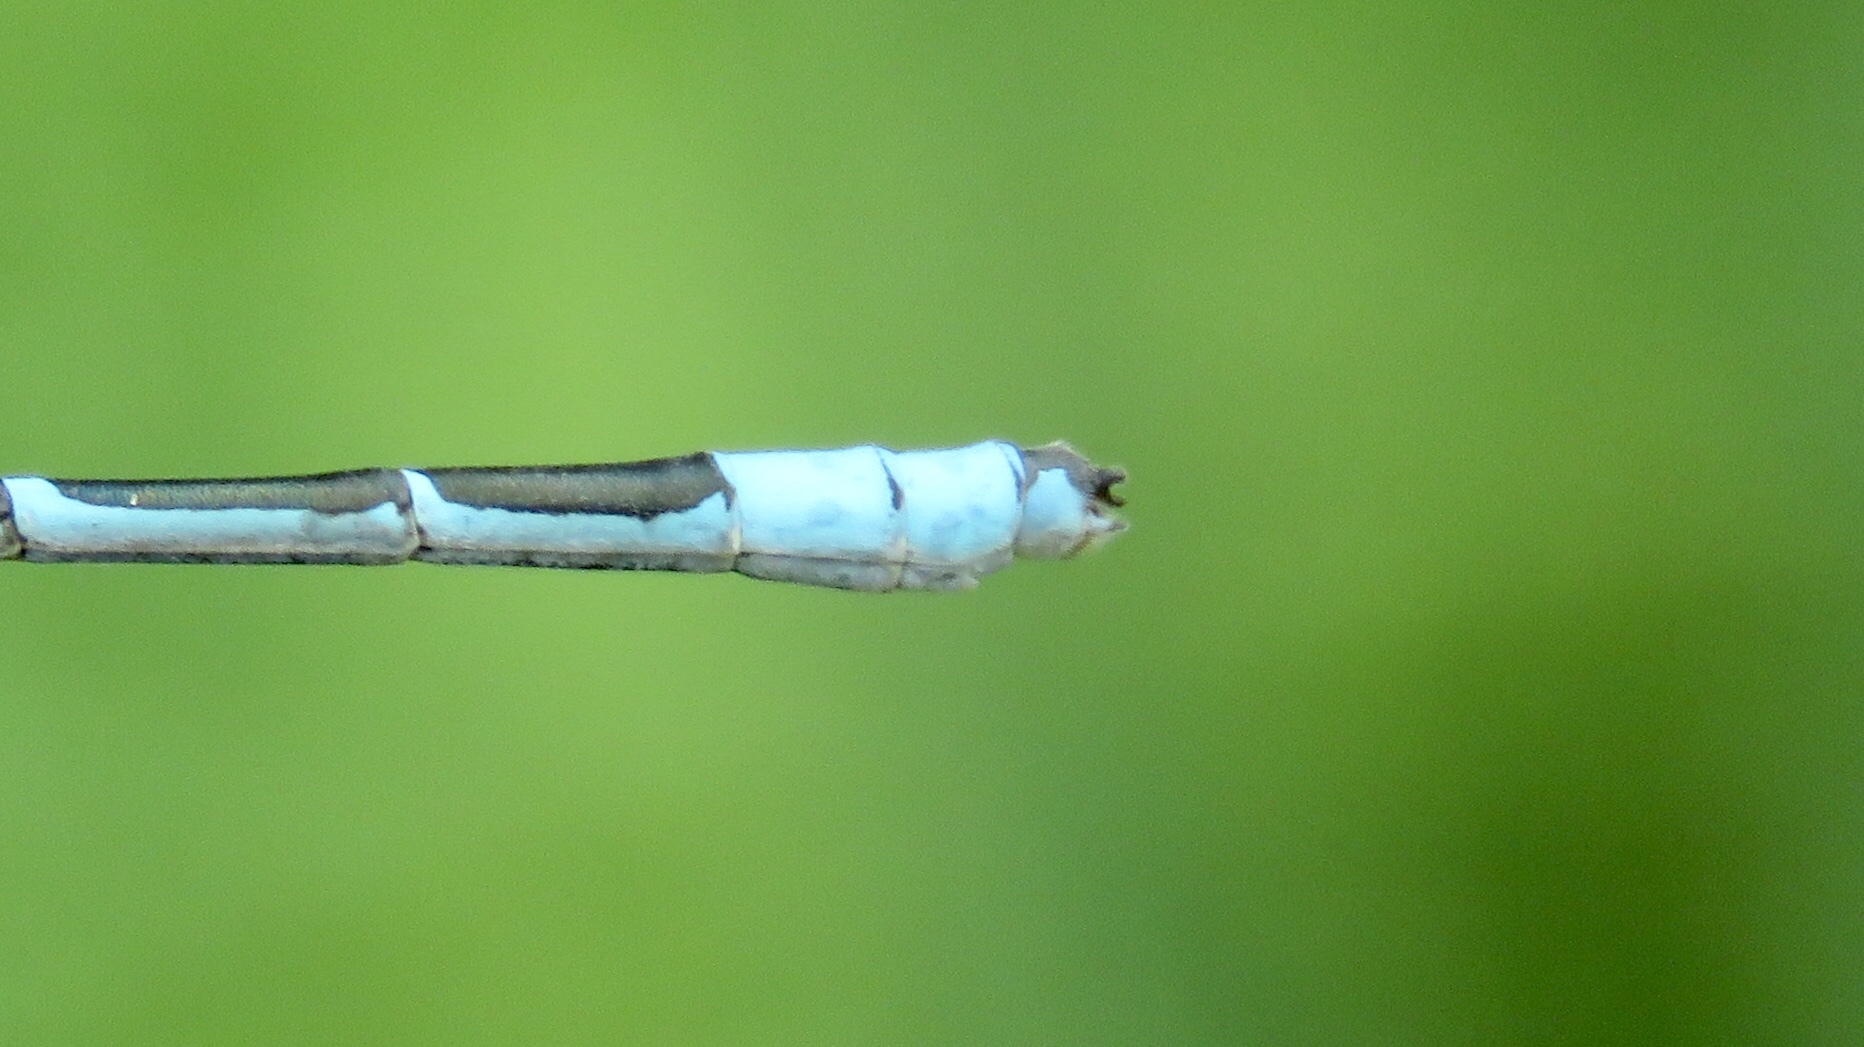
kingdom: Animalia
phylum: Arthropoda
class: Insecta
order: Odonata
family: Coenagrionidae
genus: Enallagma
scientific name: Enallagma ebrium
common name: Marsh bluet
